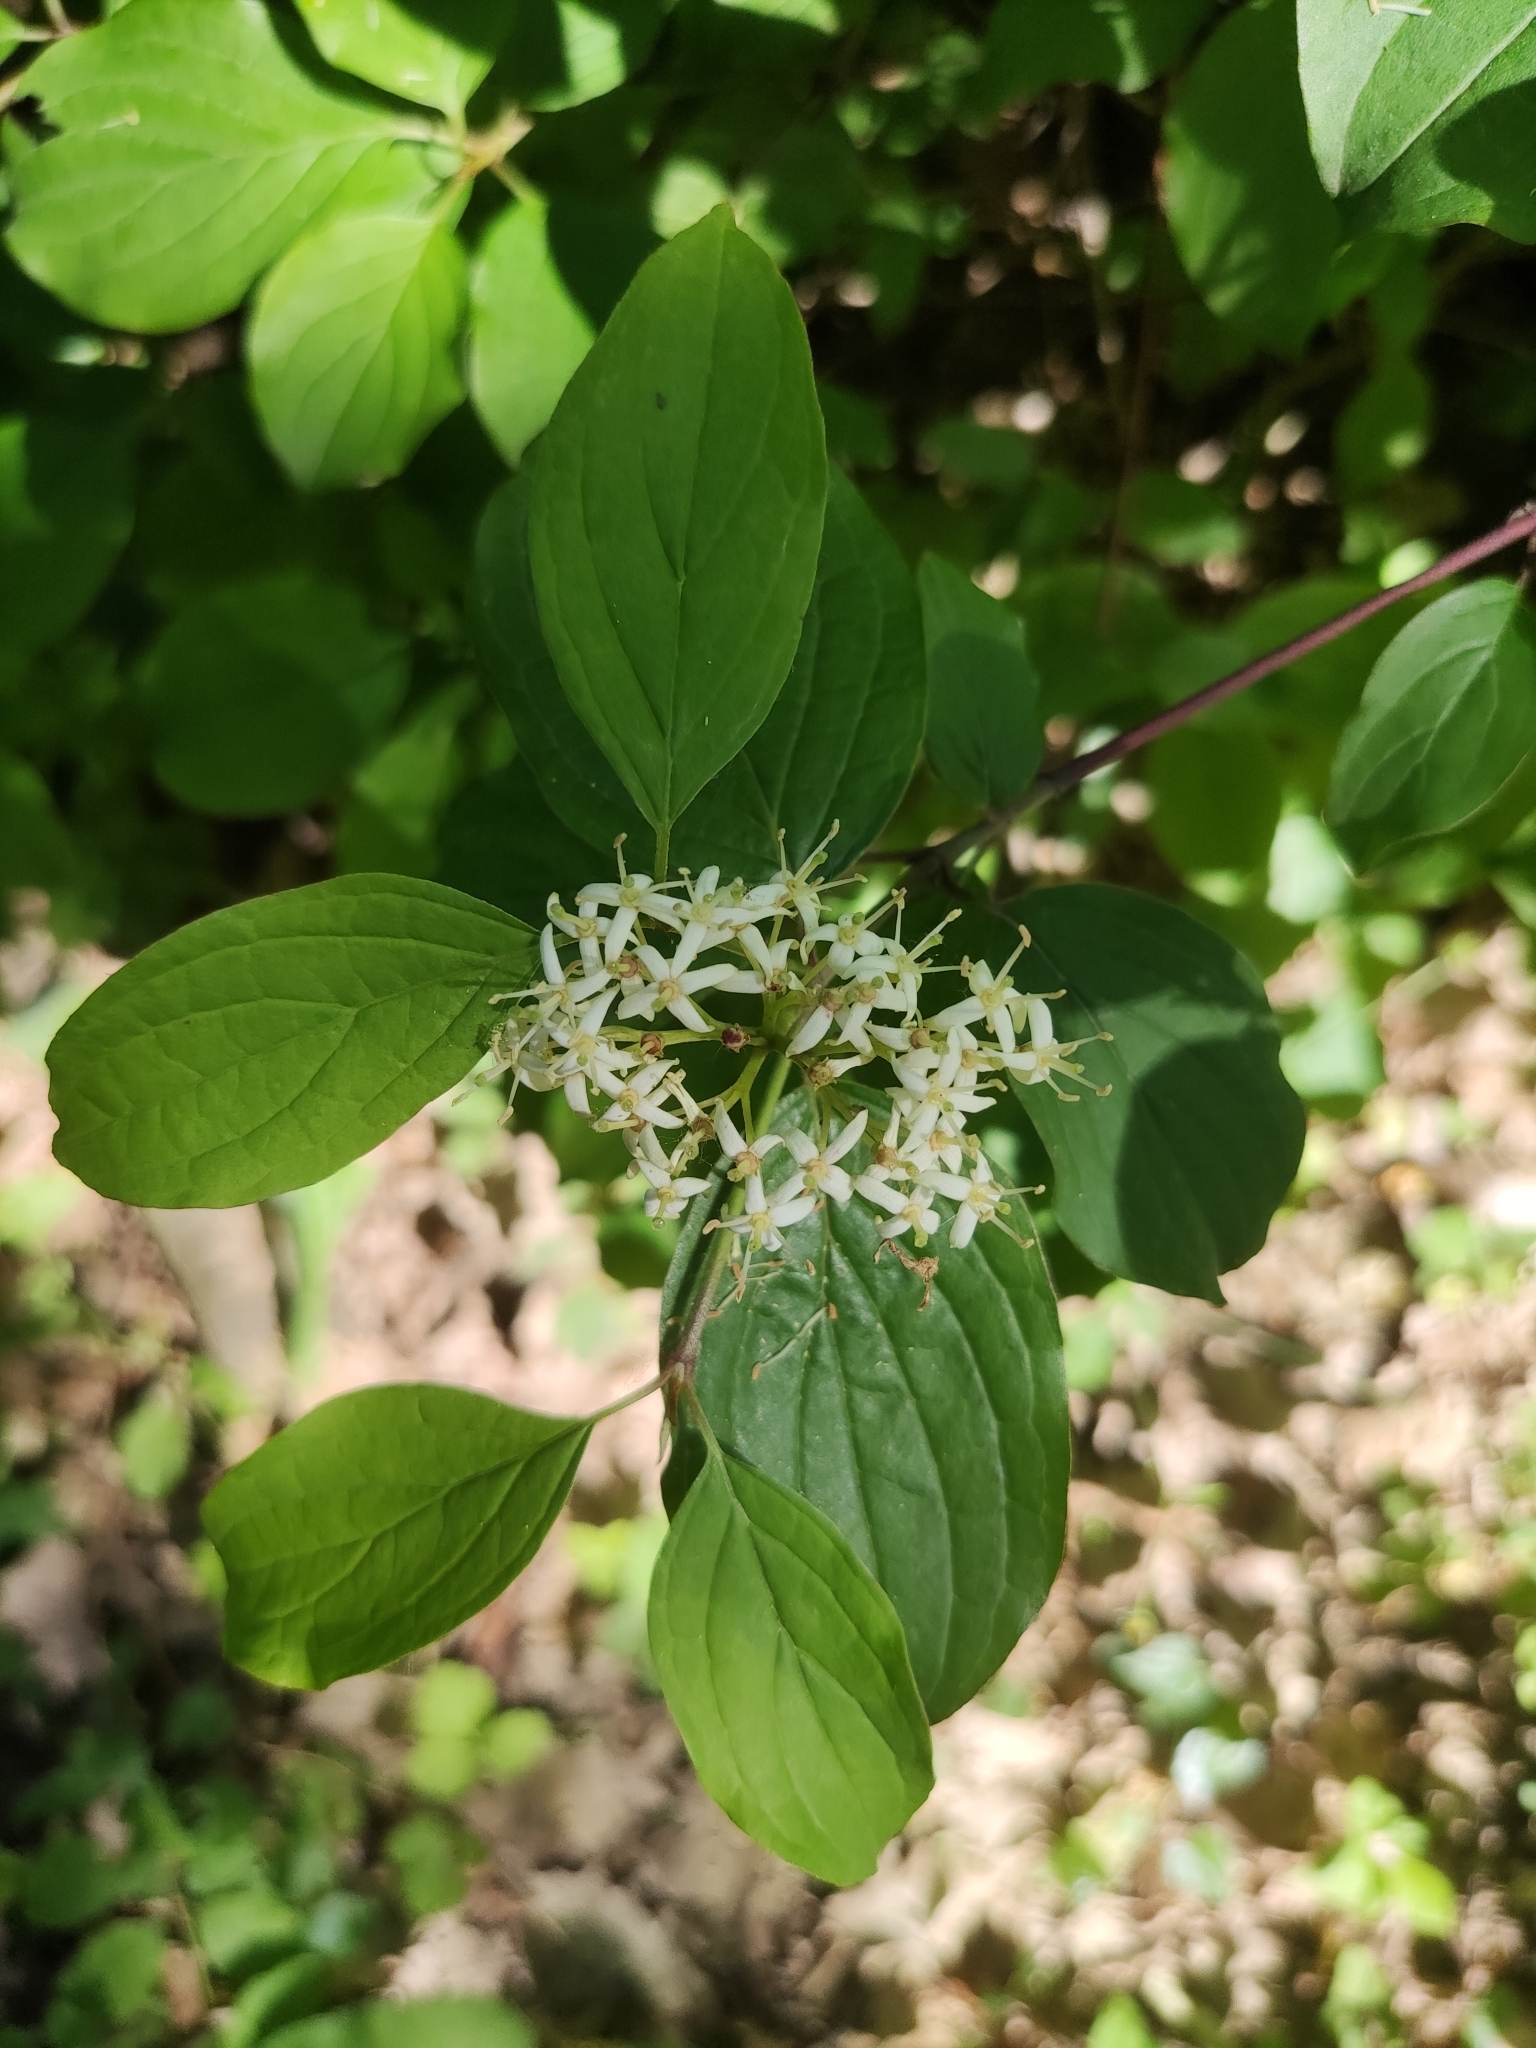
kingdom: Plantae
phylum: Tracheophyta
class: Magnoliopsida
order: Cornales
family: Cornaceae
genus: Cornus
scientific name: Cornus sanguinea
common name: Dogwood
